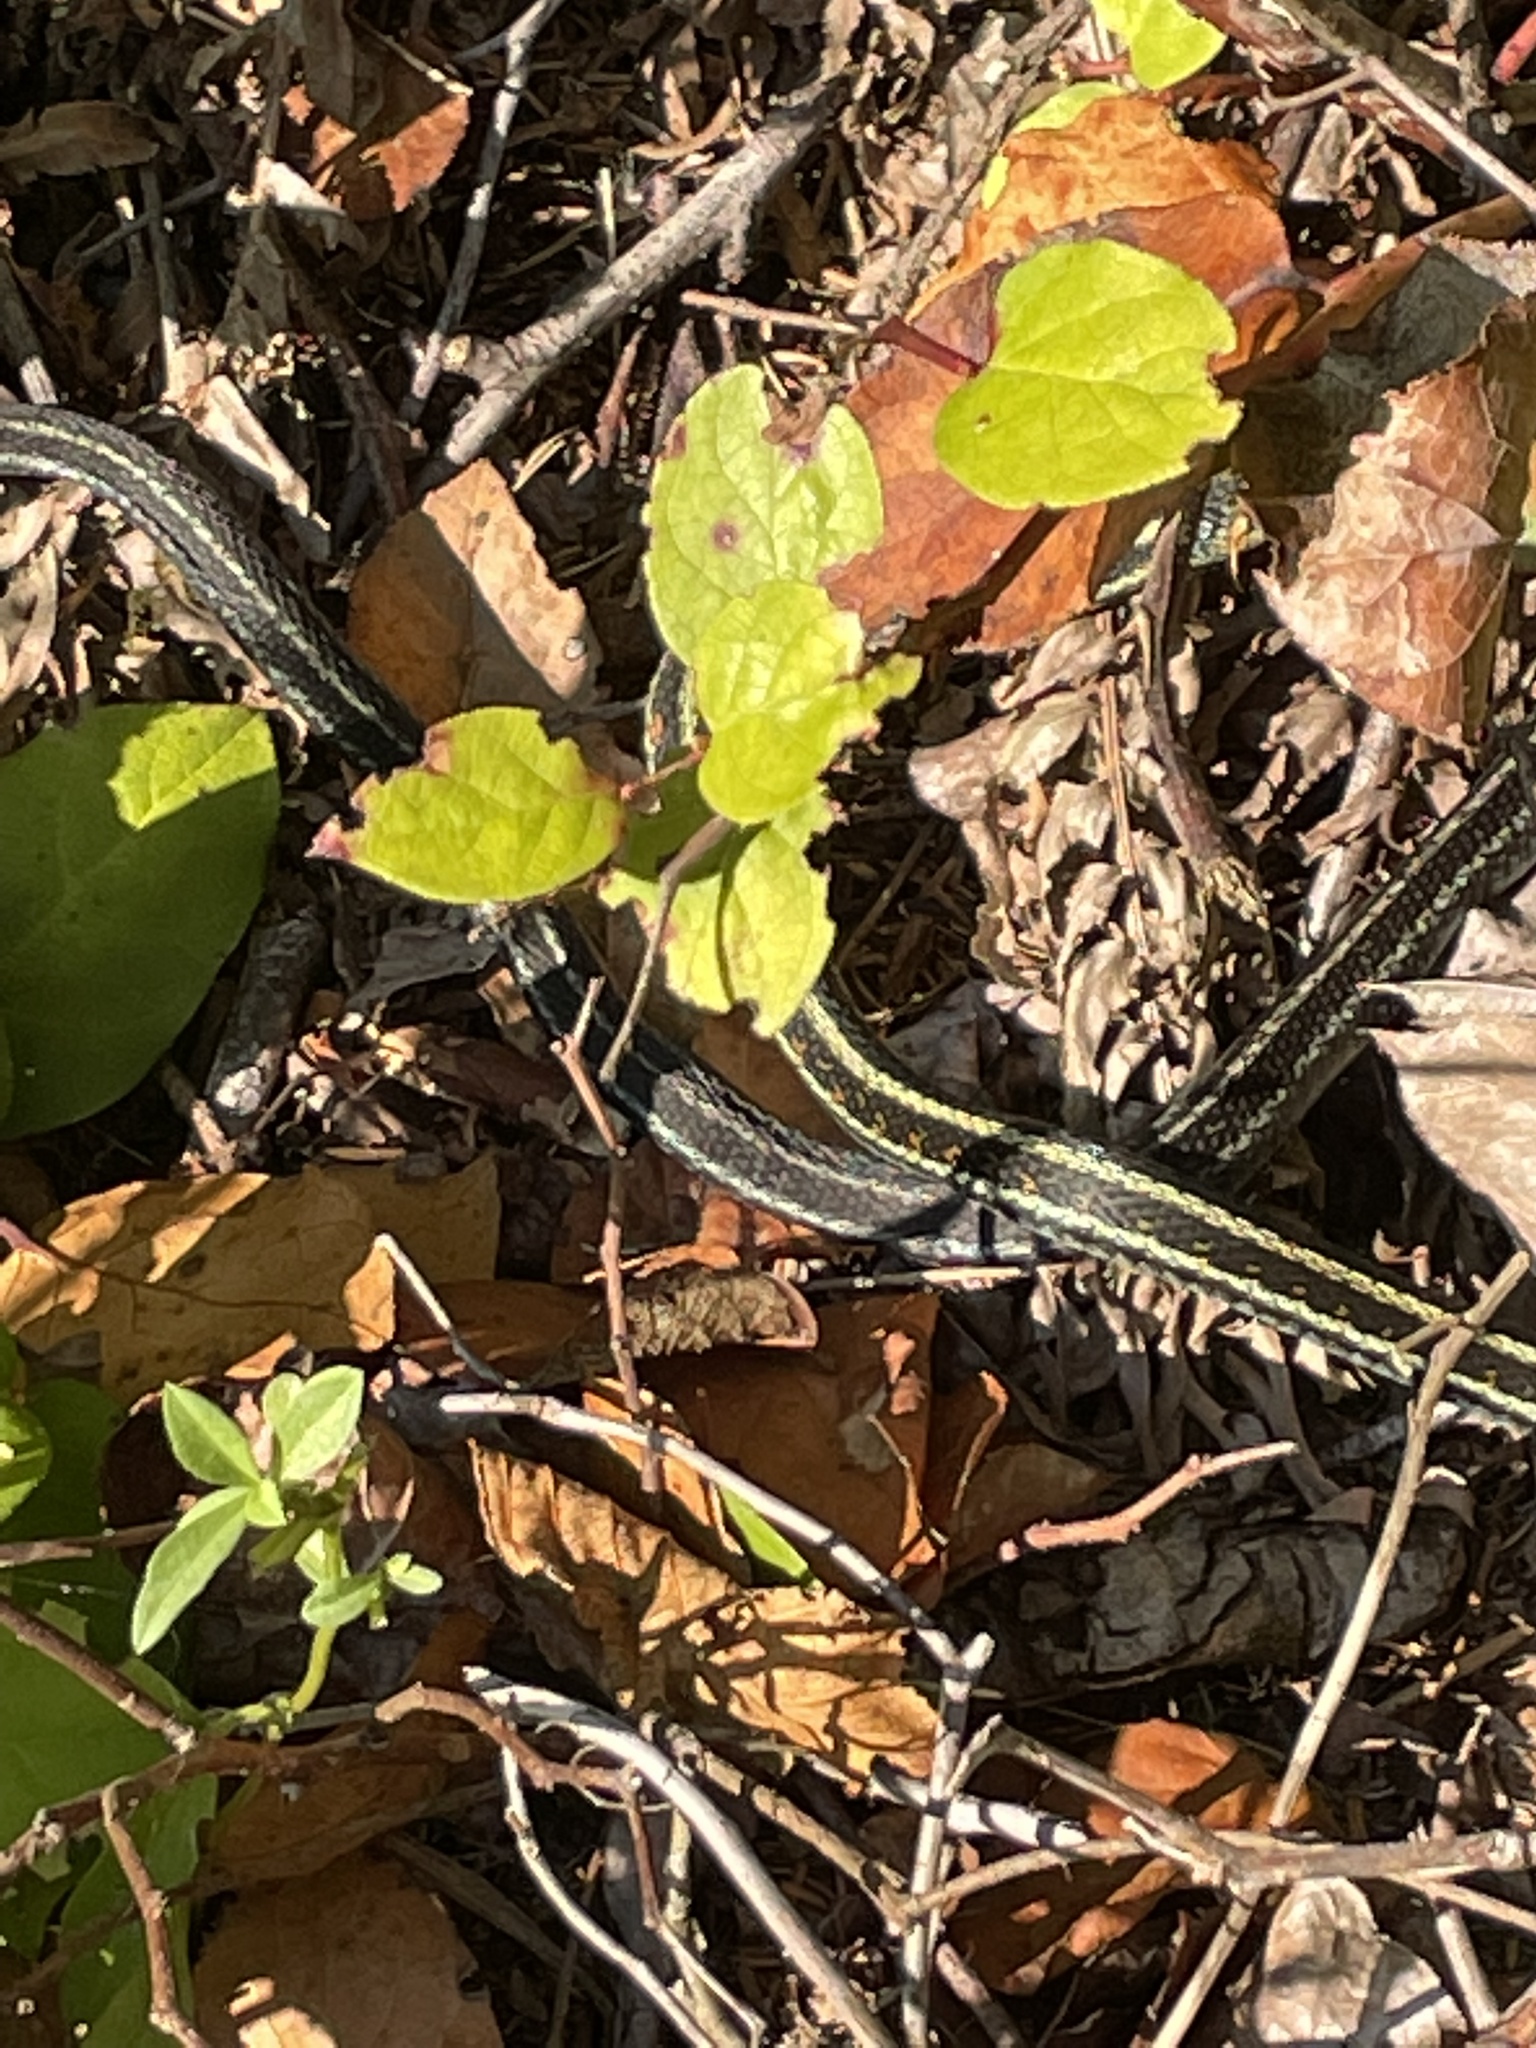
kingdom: Animalia
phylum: Chordata
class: Squamata
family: Colubridae
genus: Thamnophis
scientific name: Thamnophis sirtalis
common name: Common garter snake
